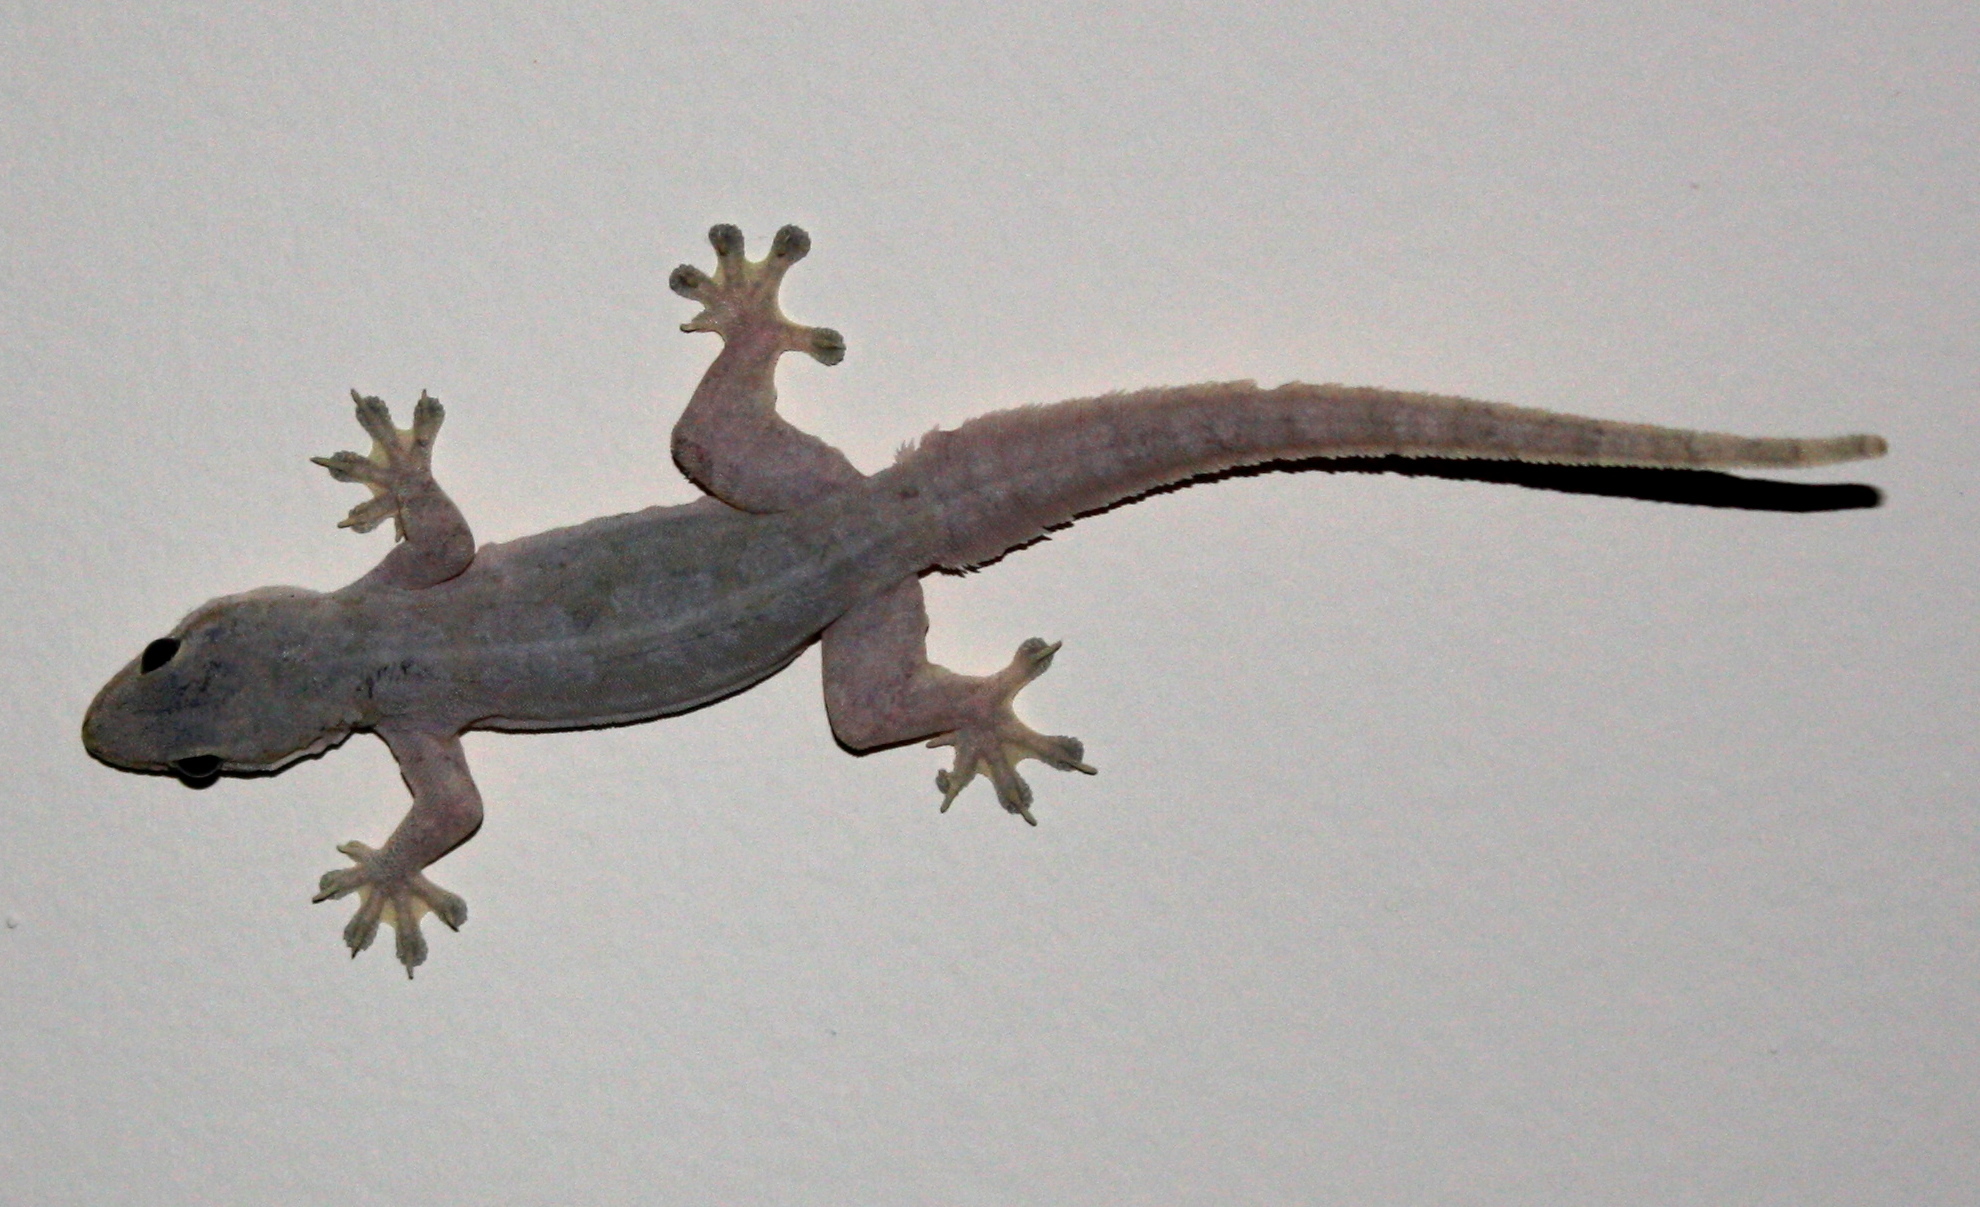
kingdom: Animalia
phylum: Chordata
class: Squamata
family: Gekkonidae
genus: Hemidactylus
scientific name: Hemidactylus platyurus
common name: Flat-tailed house gecko
